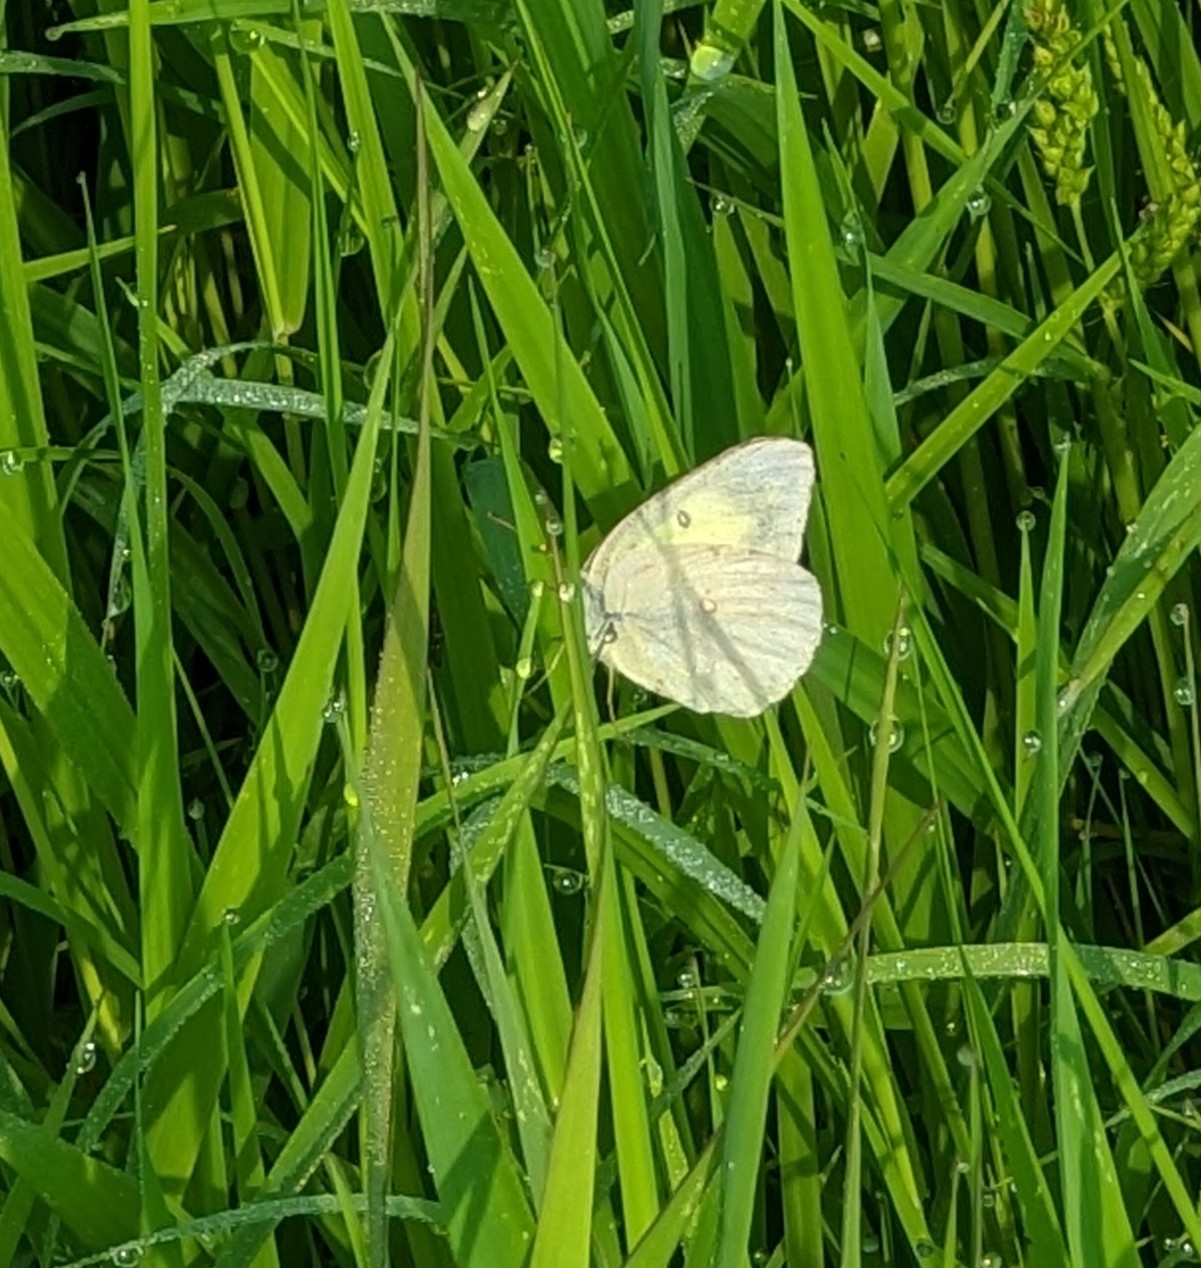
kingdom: Animalia
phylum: Arthropoda
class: Insecta
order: Lepidoptera
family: Pieridae
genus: Colias
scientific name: Colias philodice
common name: Clouded sulphur
